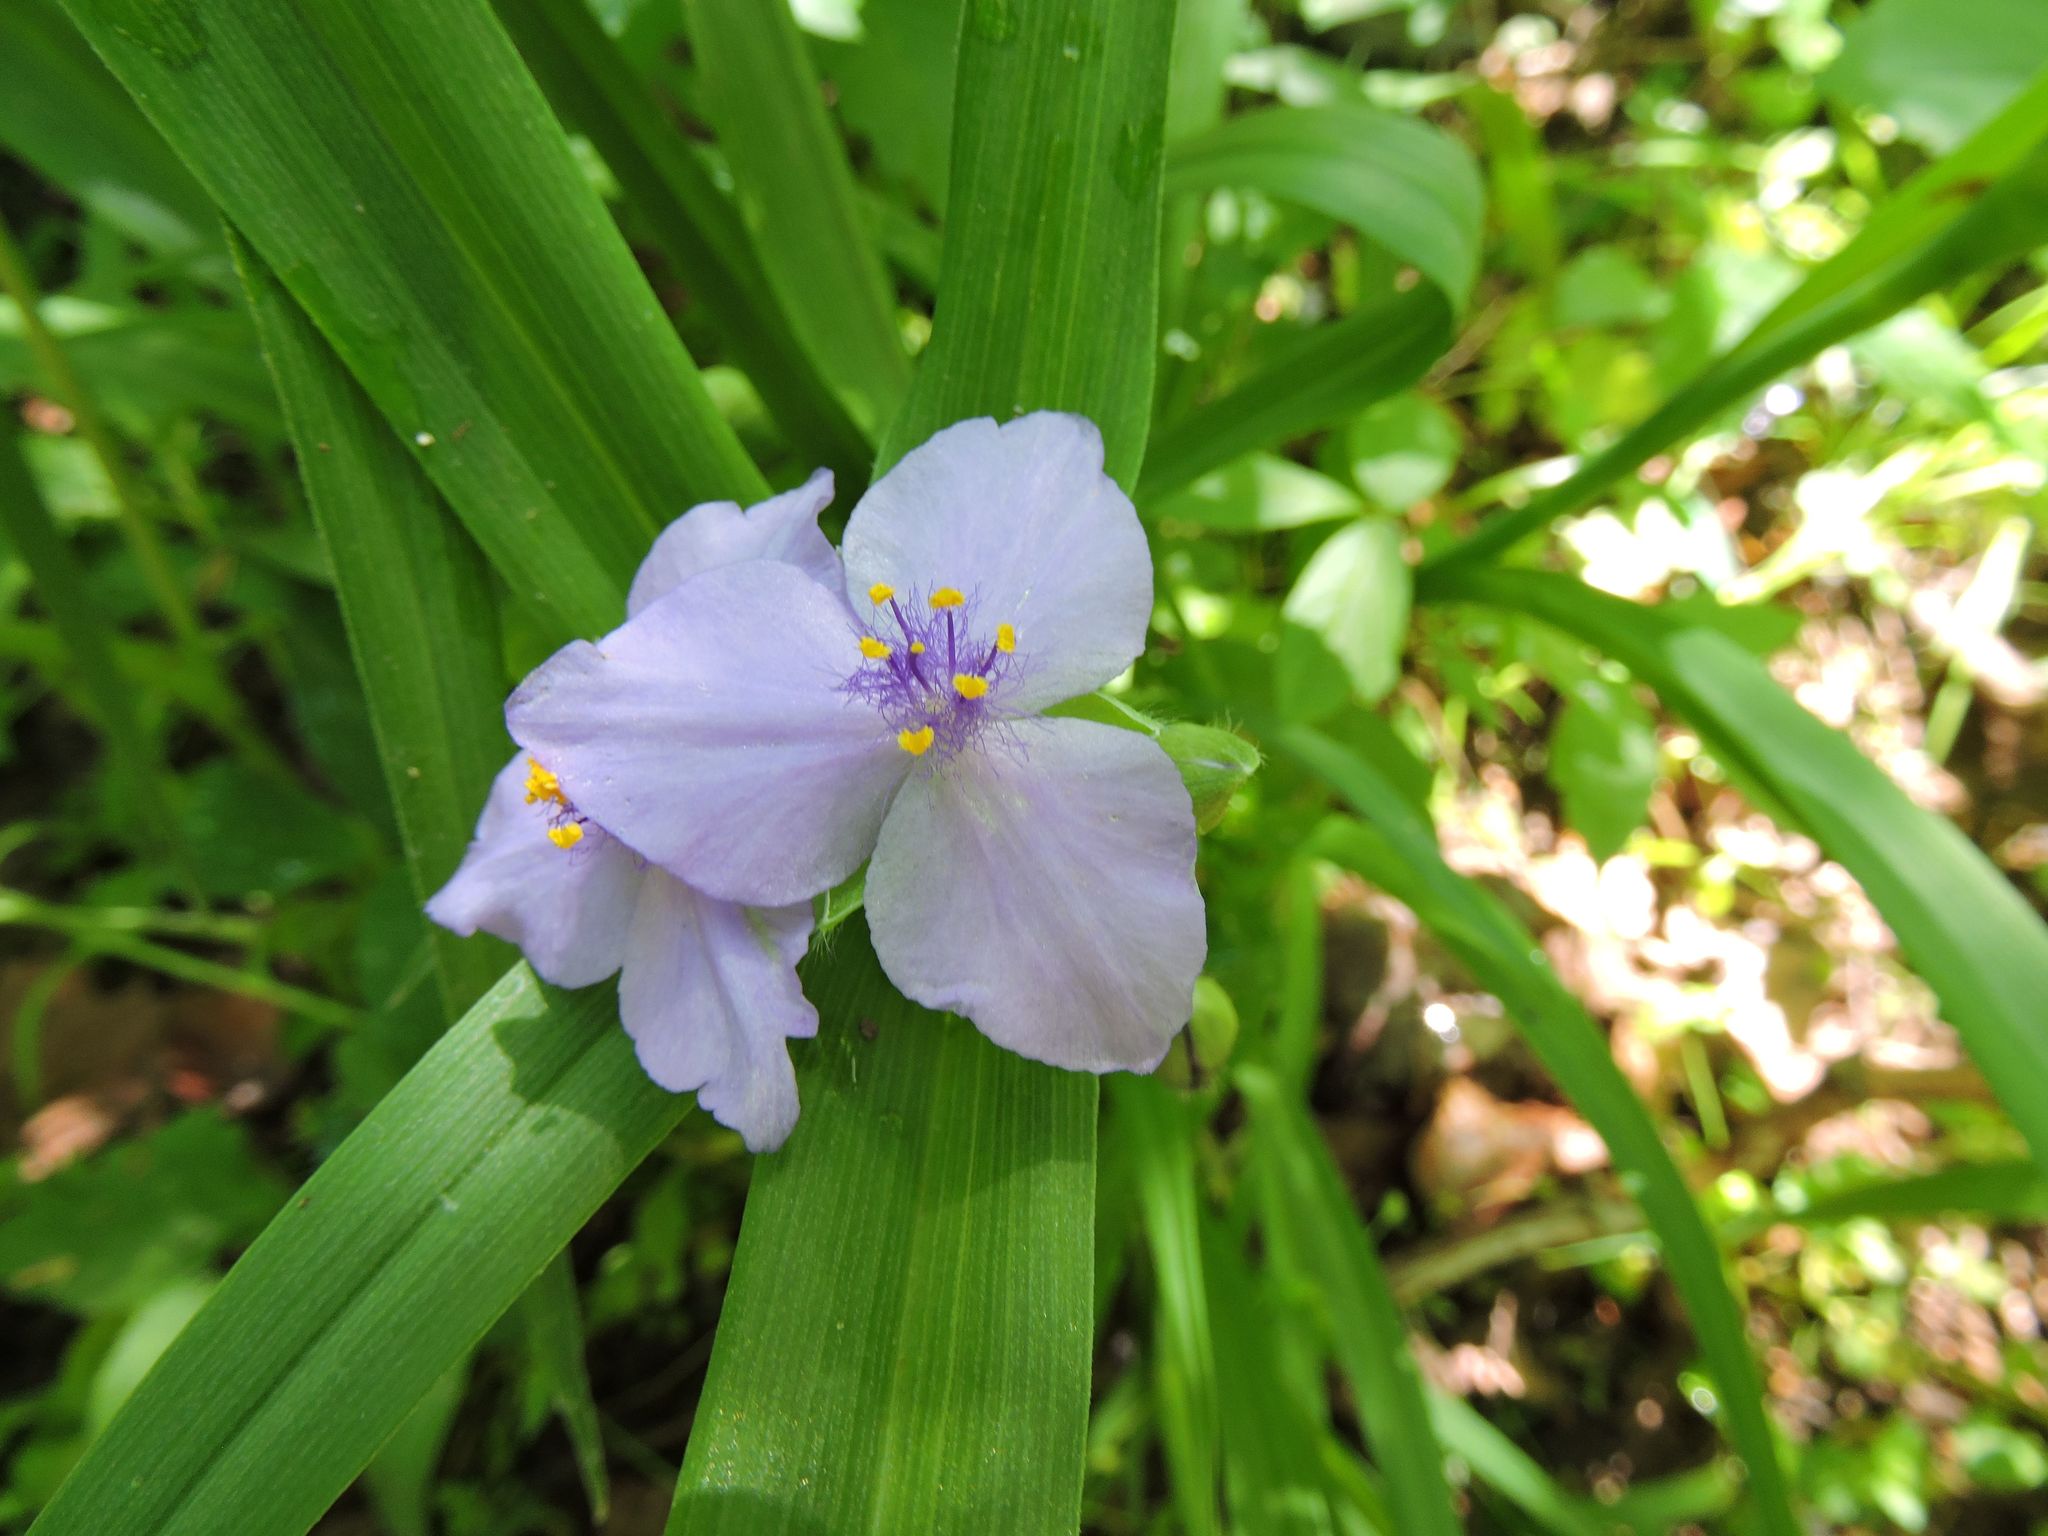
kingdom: Plantae
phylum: Tracheophyta
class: Liliopsida
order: Commelinales
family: Commelinaceae
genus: Tradescantia
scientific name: Tradescantia virginiana
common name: Spiderwort
